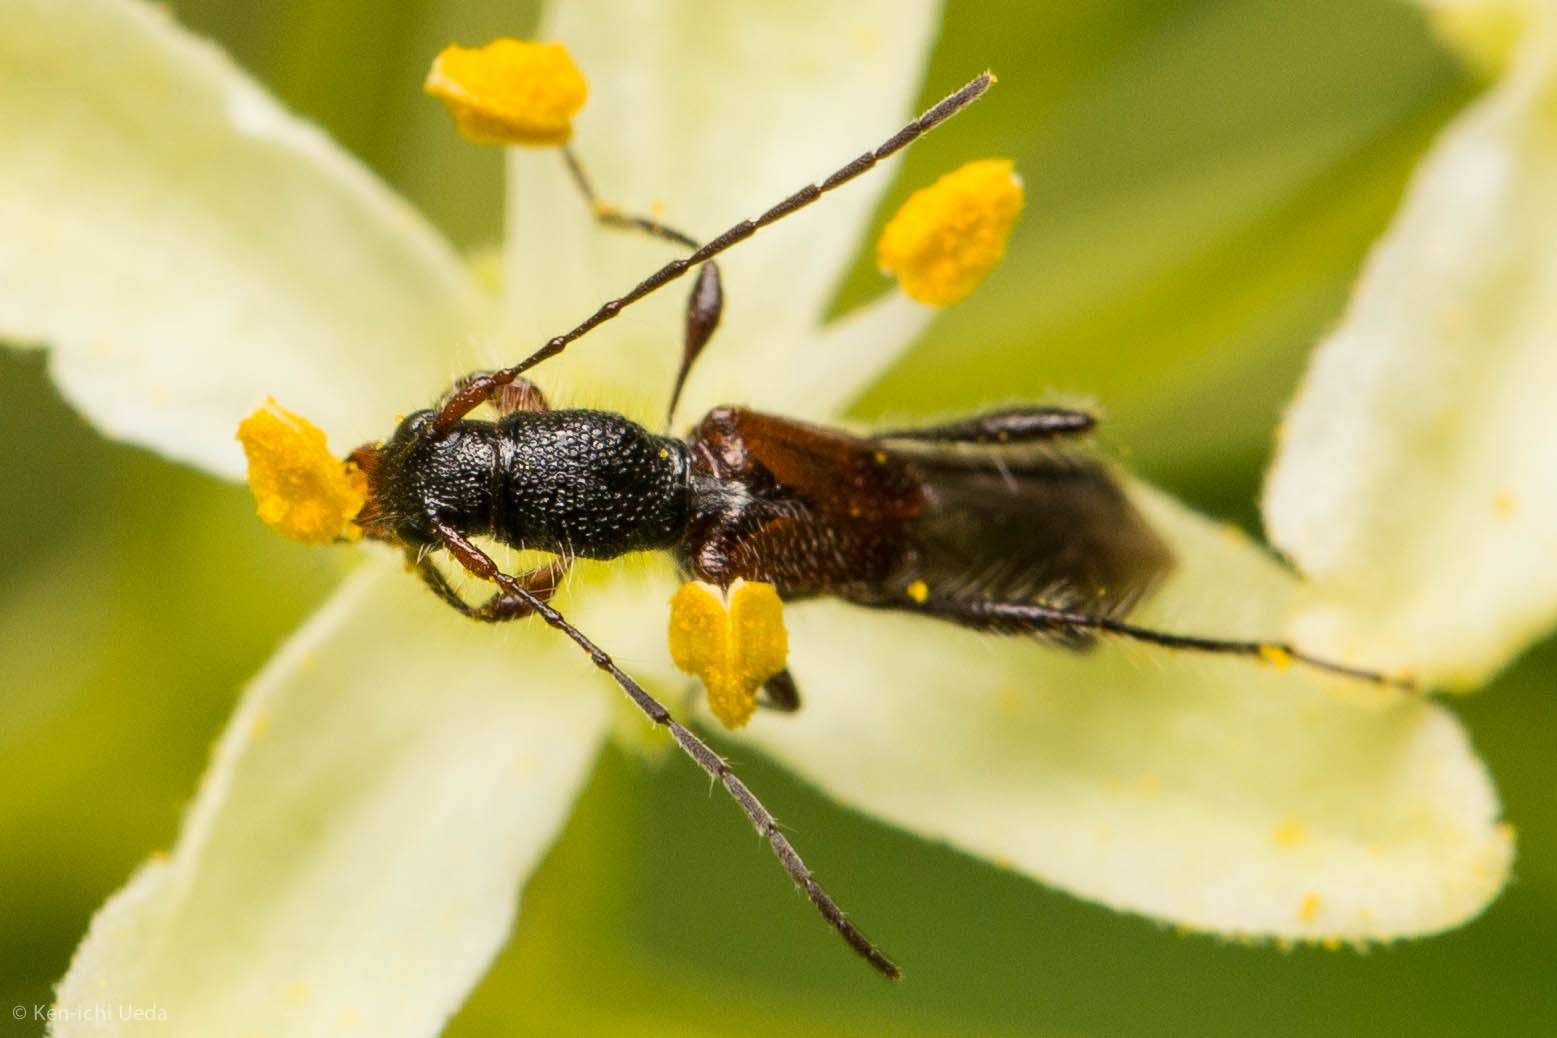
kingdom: Animalia
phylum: Arthropoda
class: Insecta
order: Coleoptera
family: Cerambycidae
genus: Molorchus
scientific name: Molorchus longicollis
